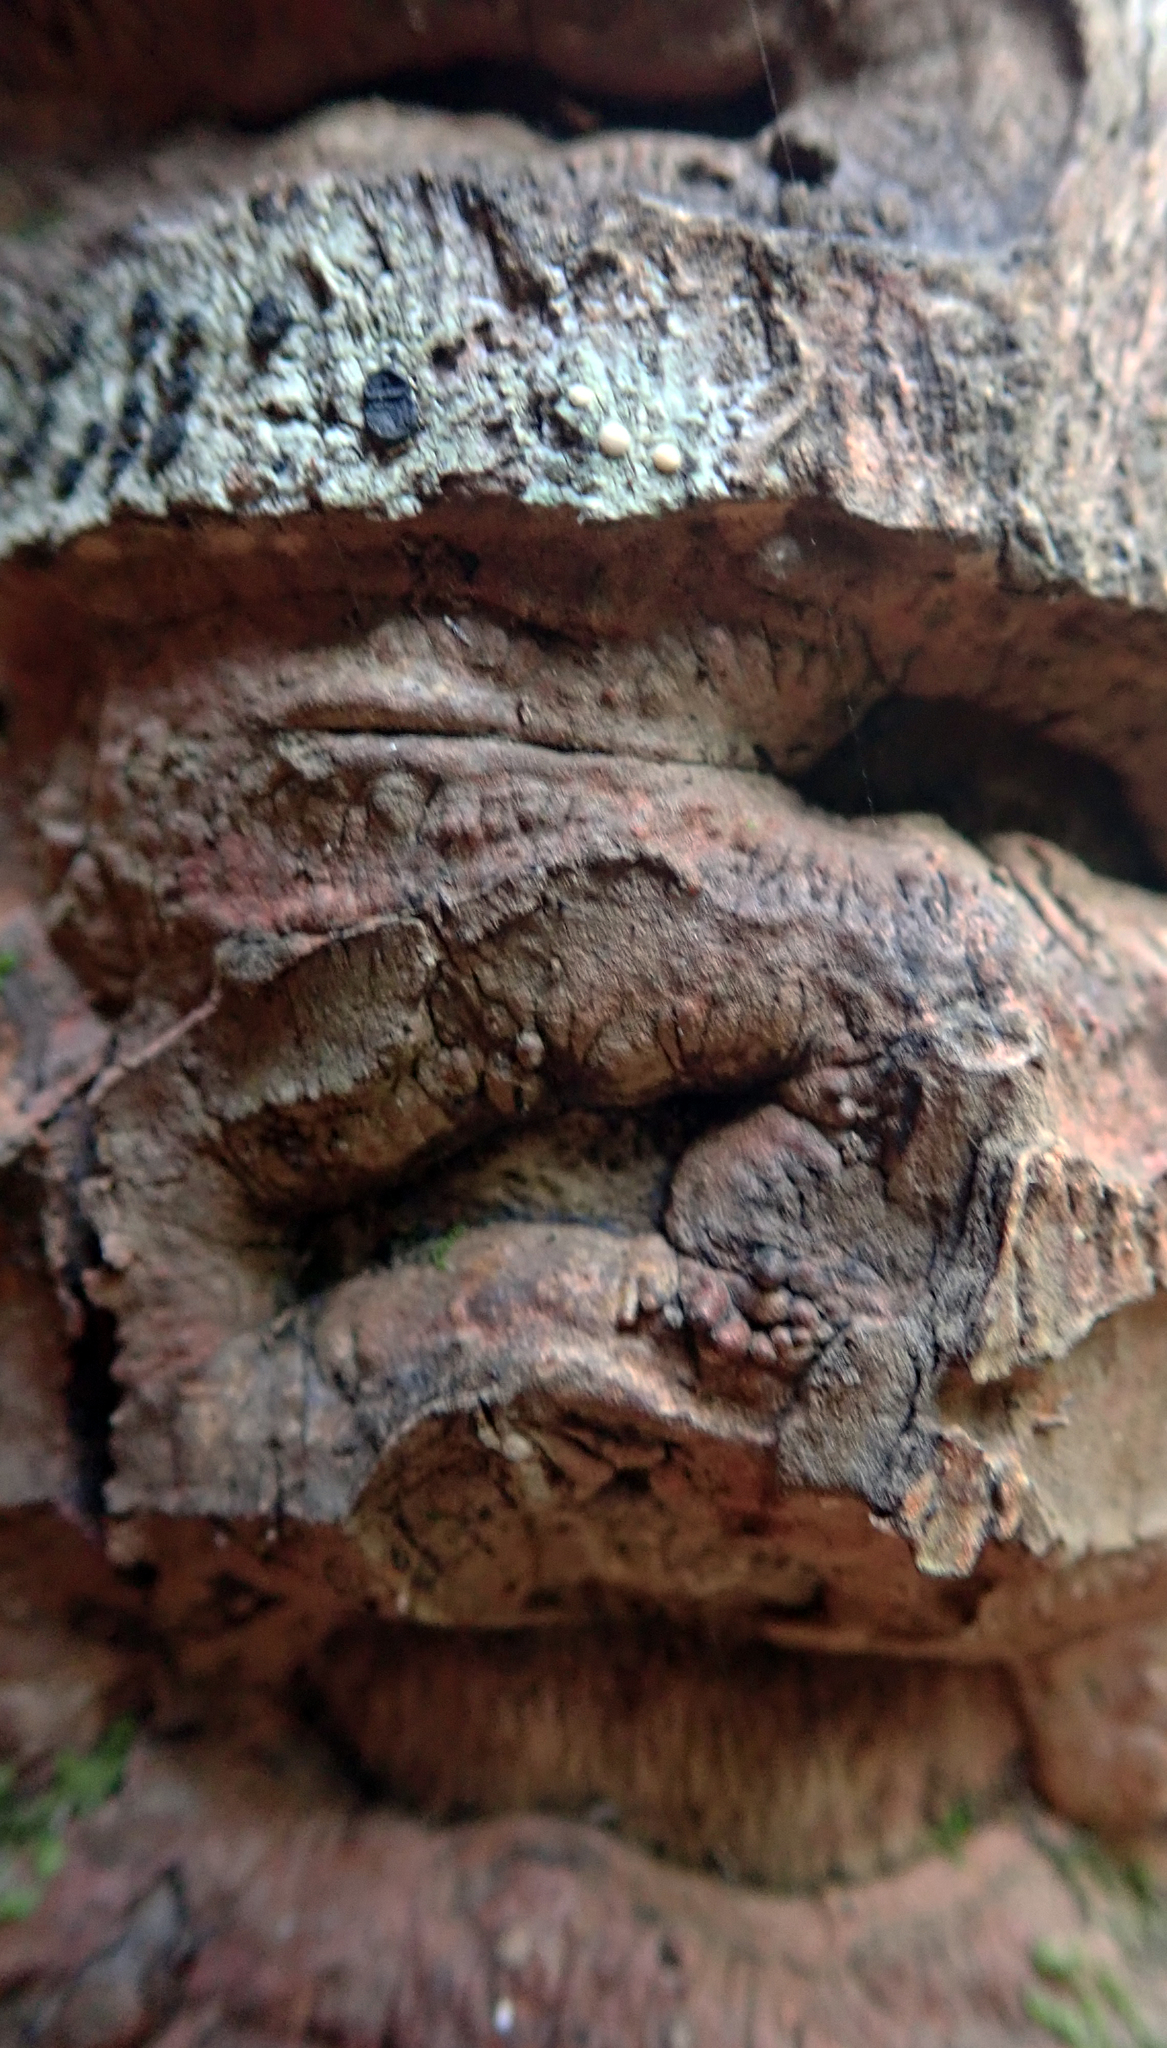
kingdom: Plantae
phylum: Tracheophyta
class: Magnoliopsida
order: Gentianales
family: Rubiaceae
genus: Coprosma
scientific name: Coprosma chathamica
